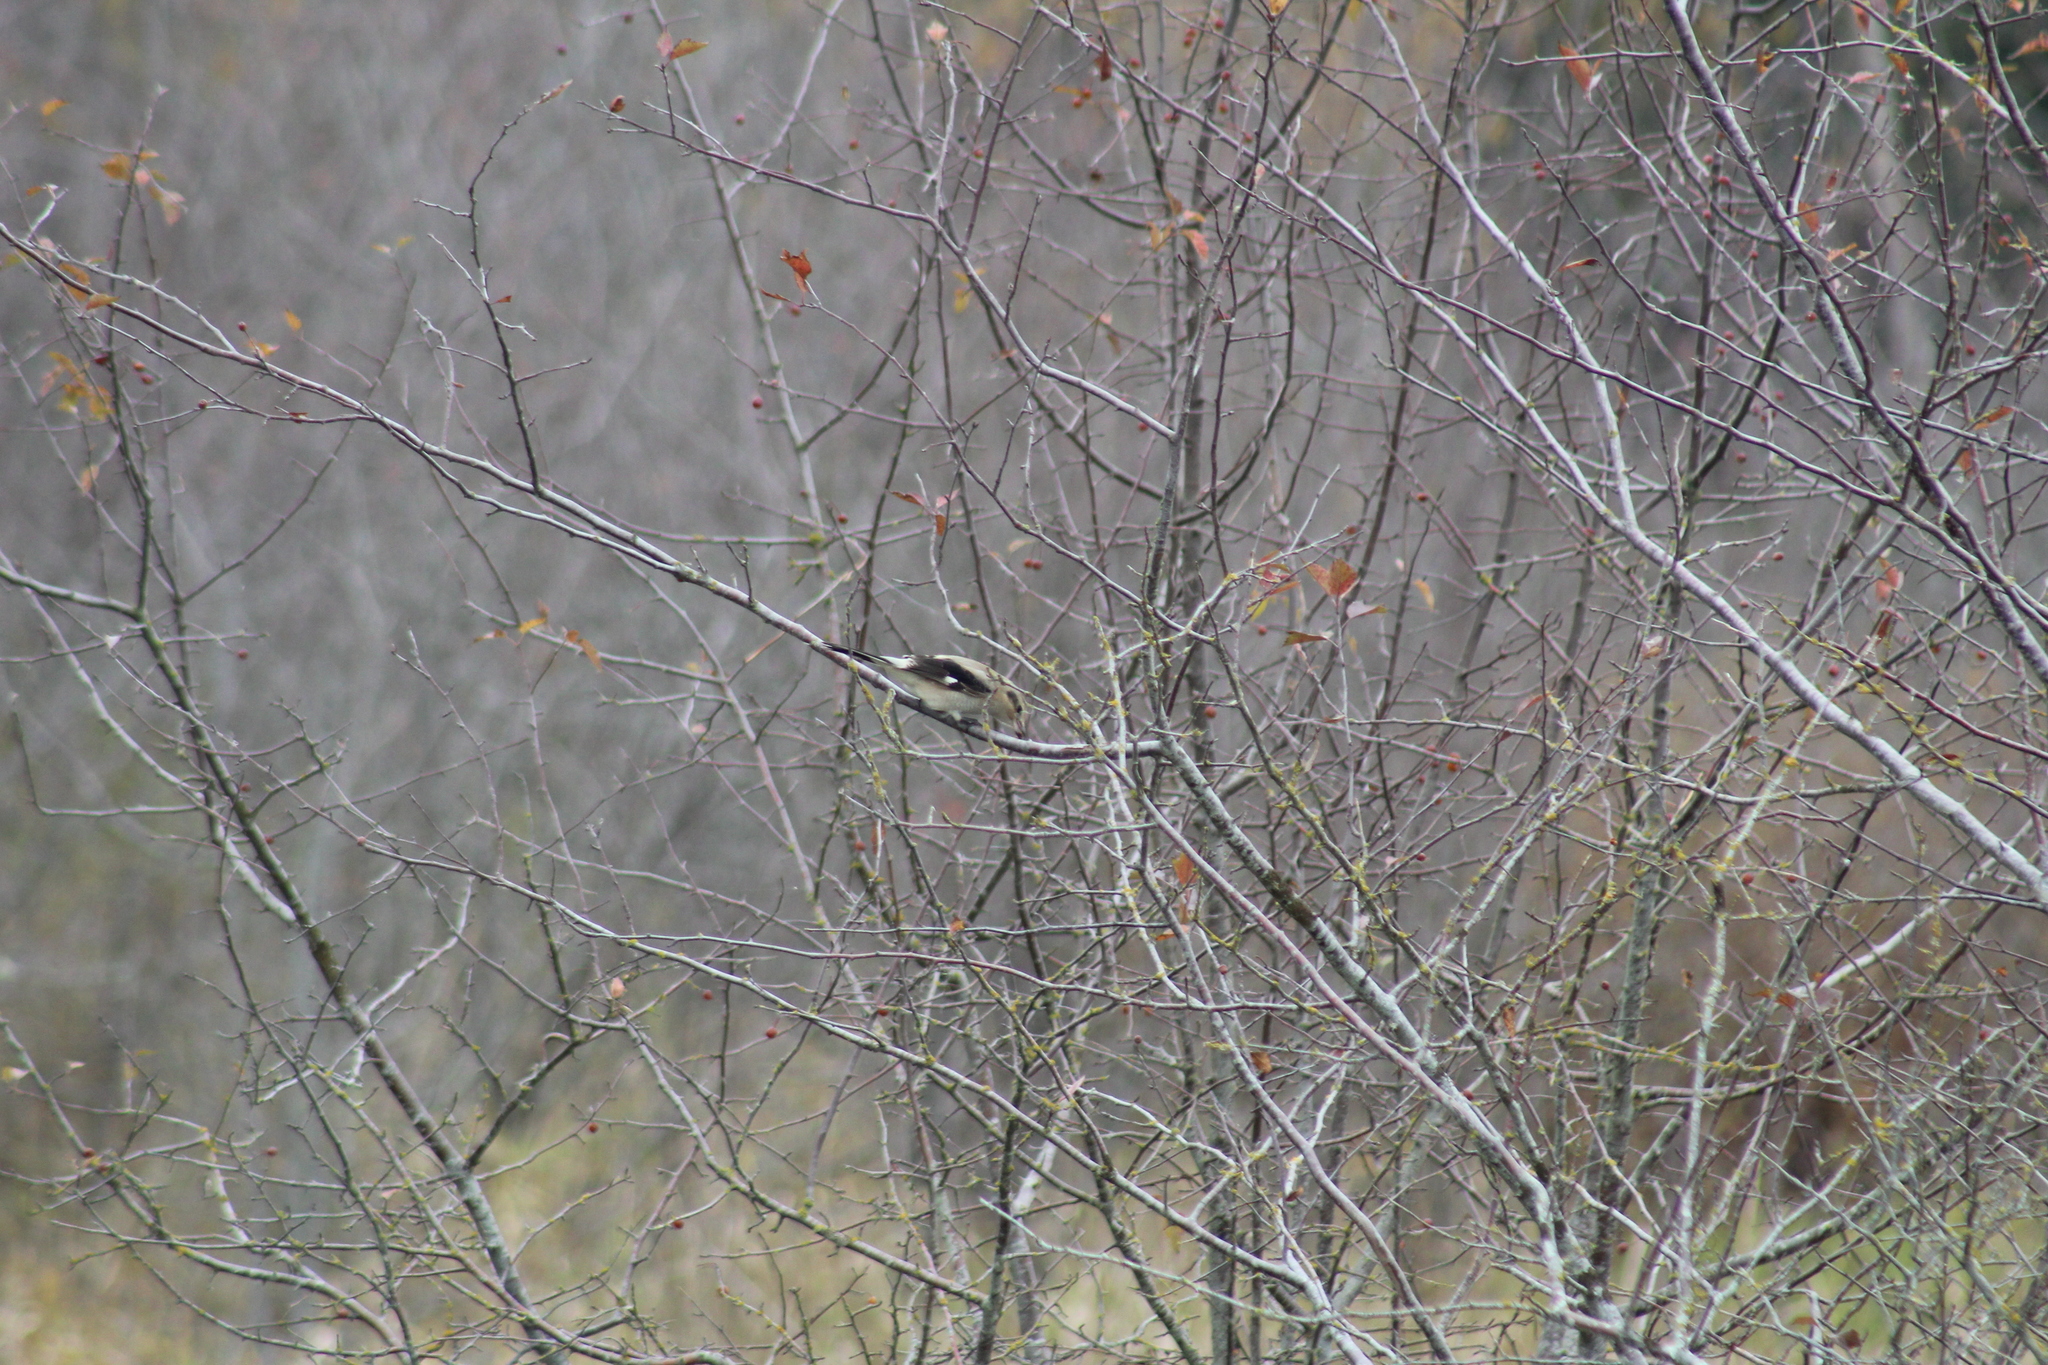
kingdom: Animalia
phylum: Chordata
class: Aves
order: Passeriformes
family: Laniidae
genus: Lanius
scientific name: Lanius borealis
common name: Northern shrike
